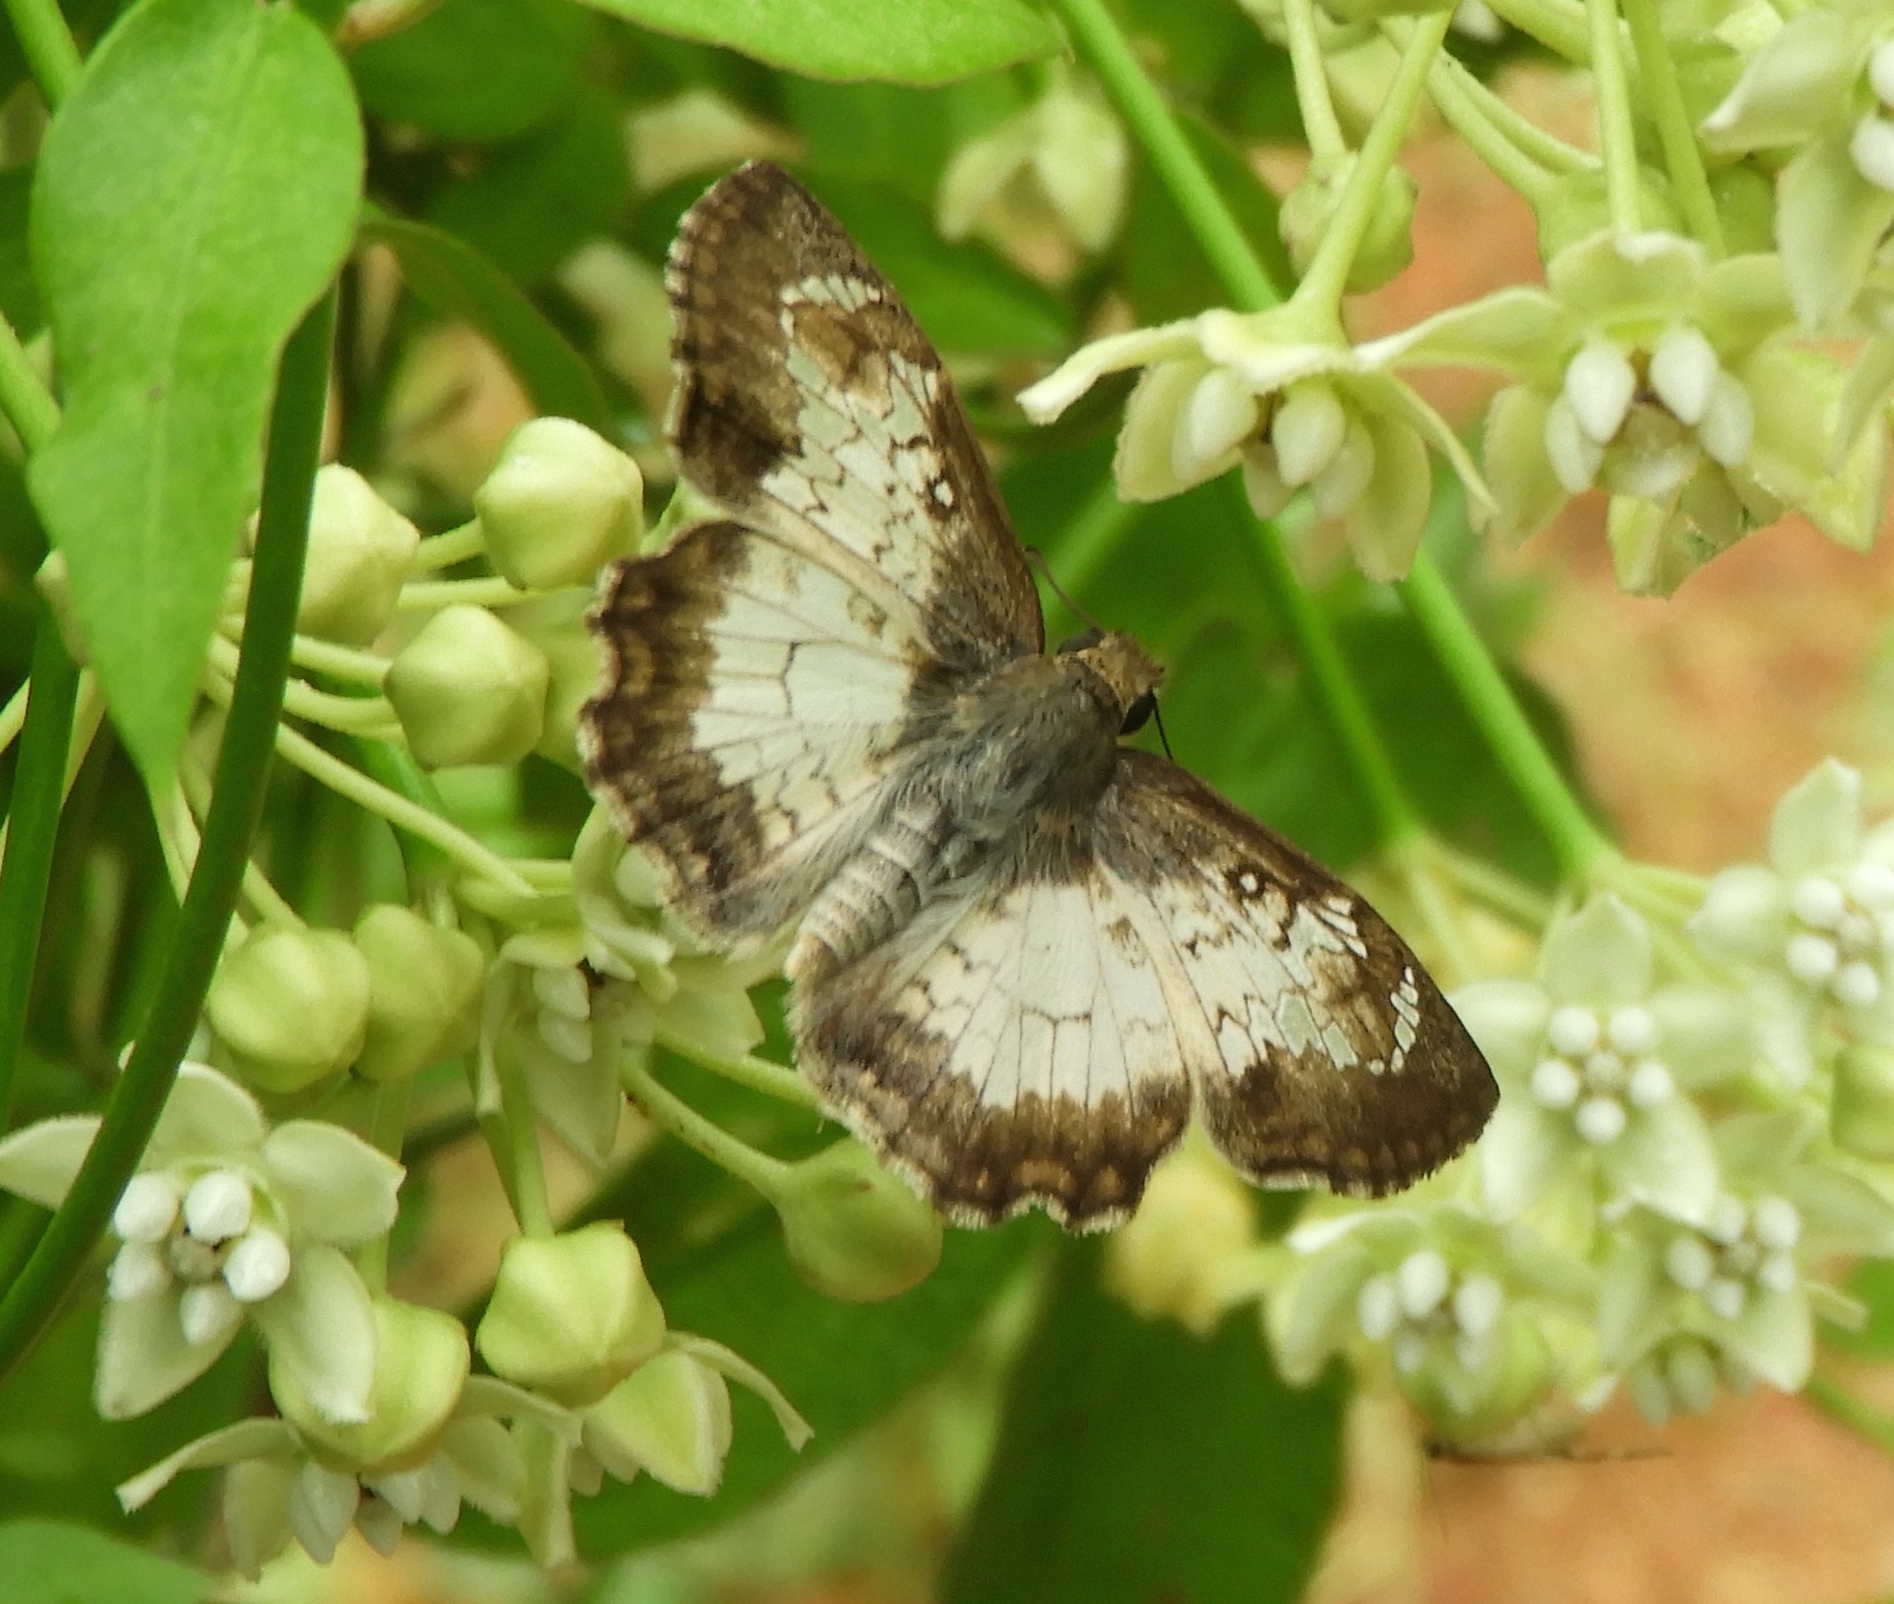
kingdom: Animalia
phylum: Arthropoda
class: Insecta
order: Lepidoptera
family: Hesperiidae
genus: Antigonus
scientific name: Antigonus emorsa
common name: White spurwing
